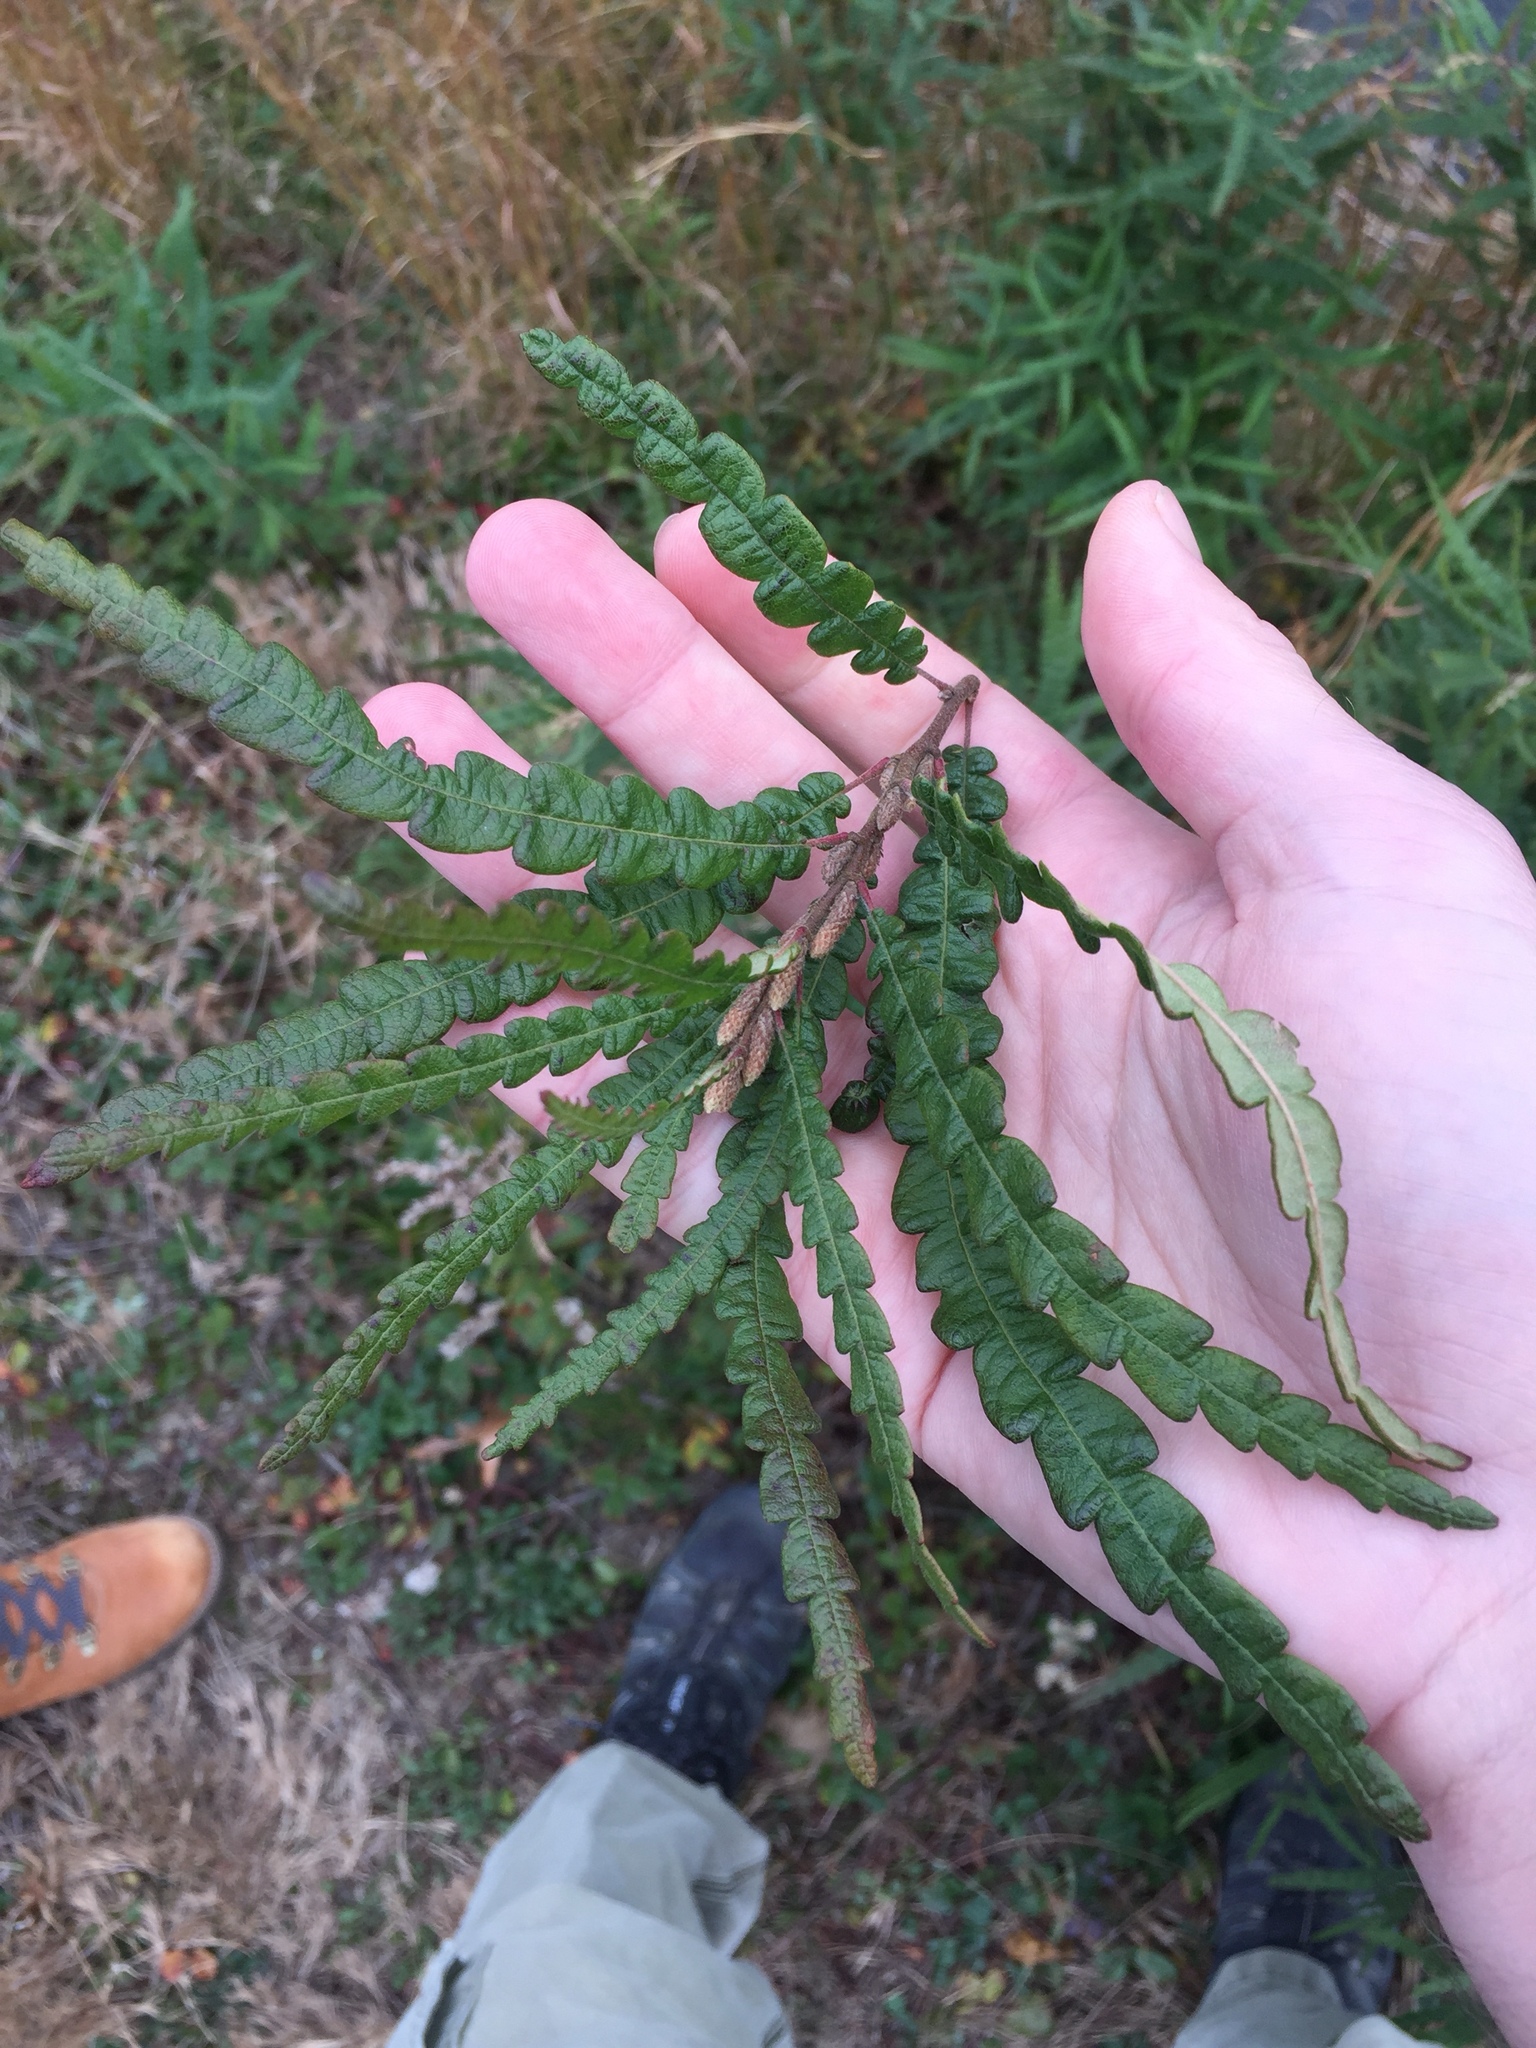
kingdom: Plantae
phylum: Tracheophyta
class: Magnoliopsida
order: Fagales
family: Myricaceae
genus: Comptonia
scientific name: Comptonia peregrina
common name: Sweet-fern
